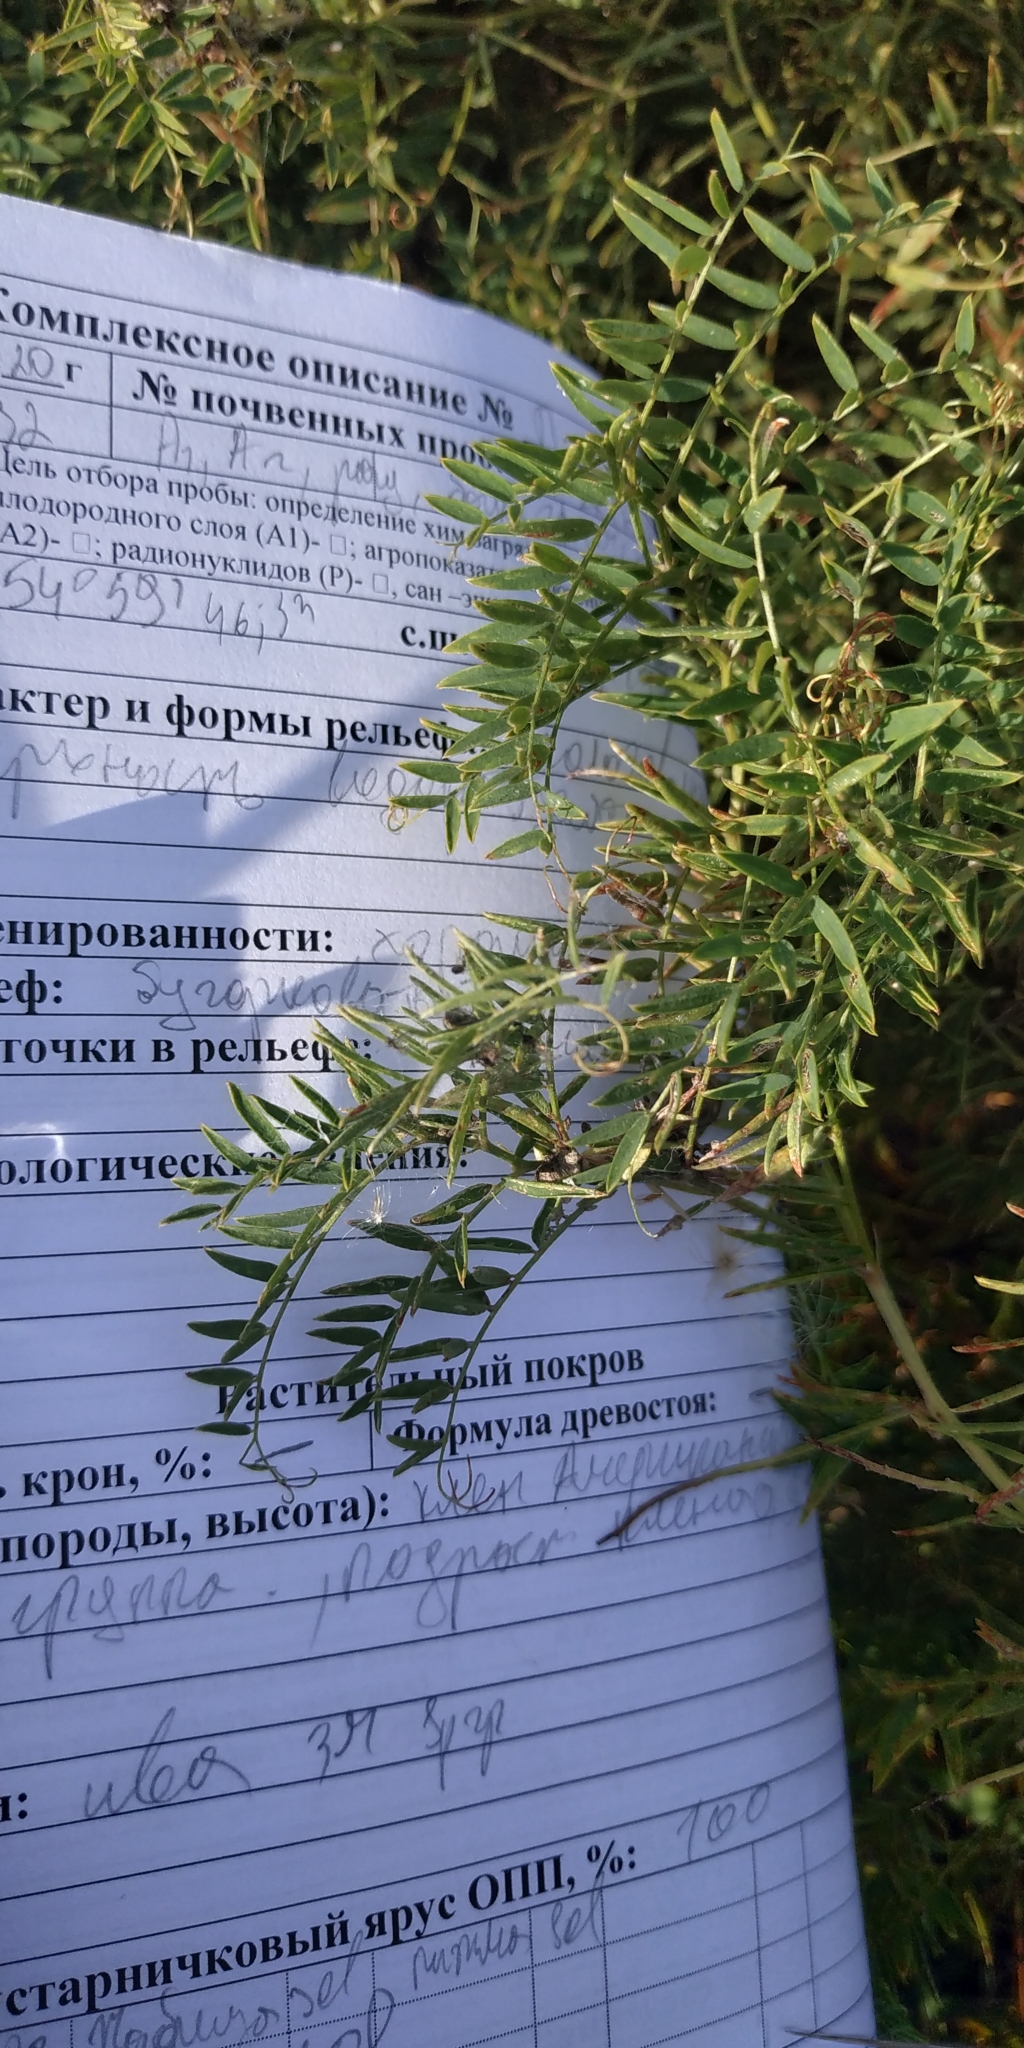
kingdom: Plantae
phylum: Tracheophyta
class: Magnoliopsida
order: Fabales
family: Fabaceae
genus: Vicia
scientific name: Vicia cracca
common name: Bird vetch
